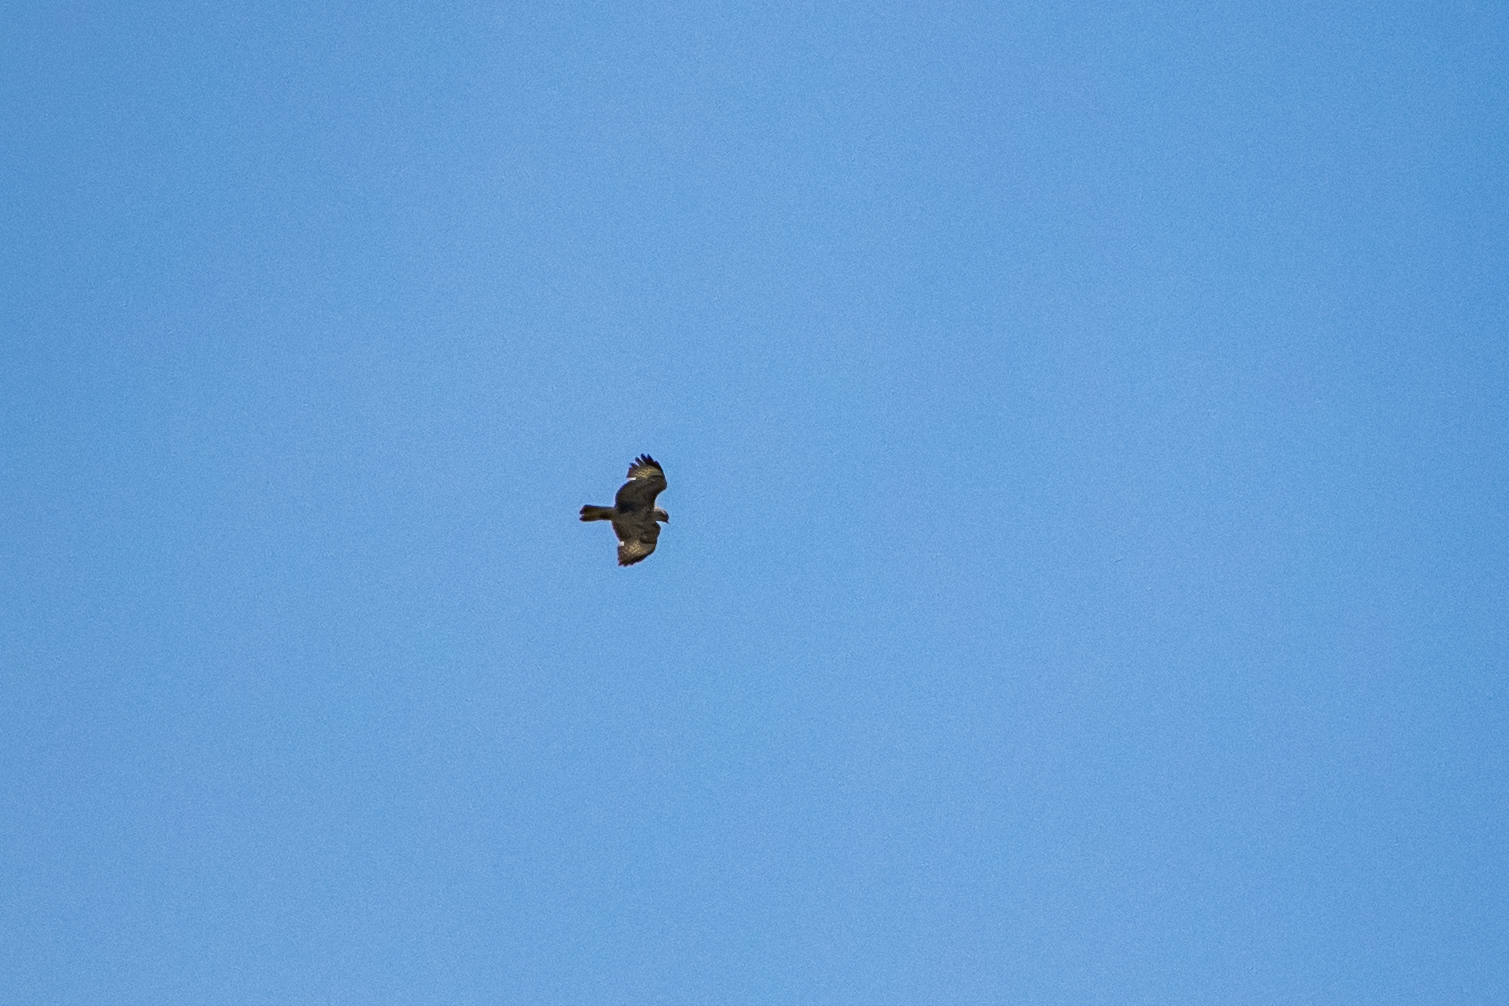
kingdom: Animalia
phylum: Chordata
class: Aves
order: Accipitriformes
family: Accipitridae
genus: Buteo
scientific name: Buteo buteo
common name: Common buzzard
